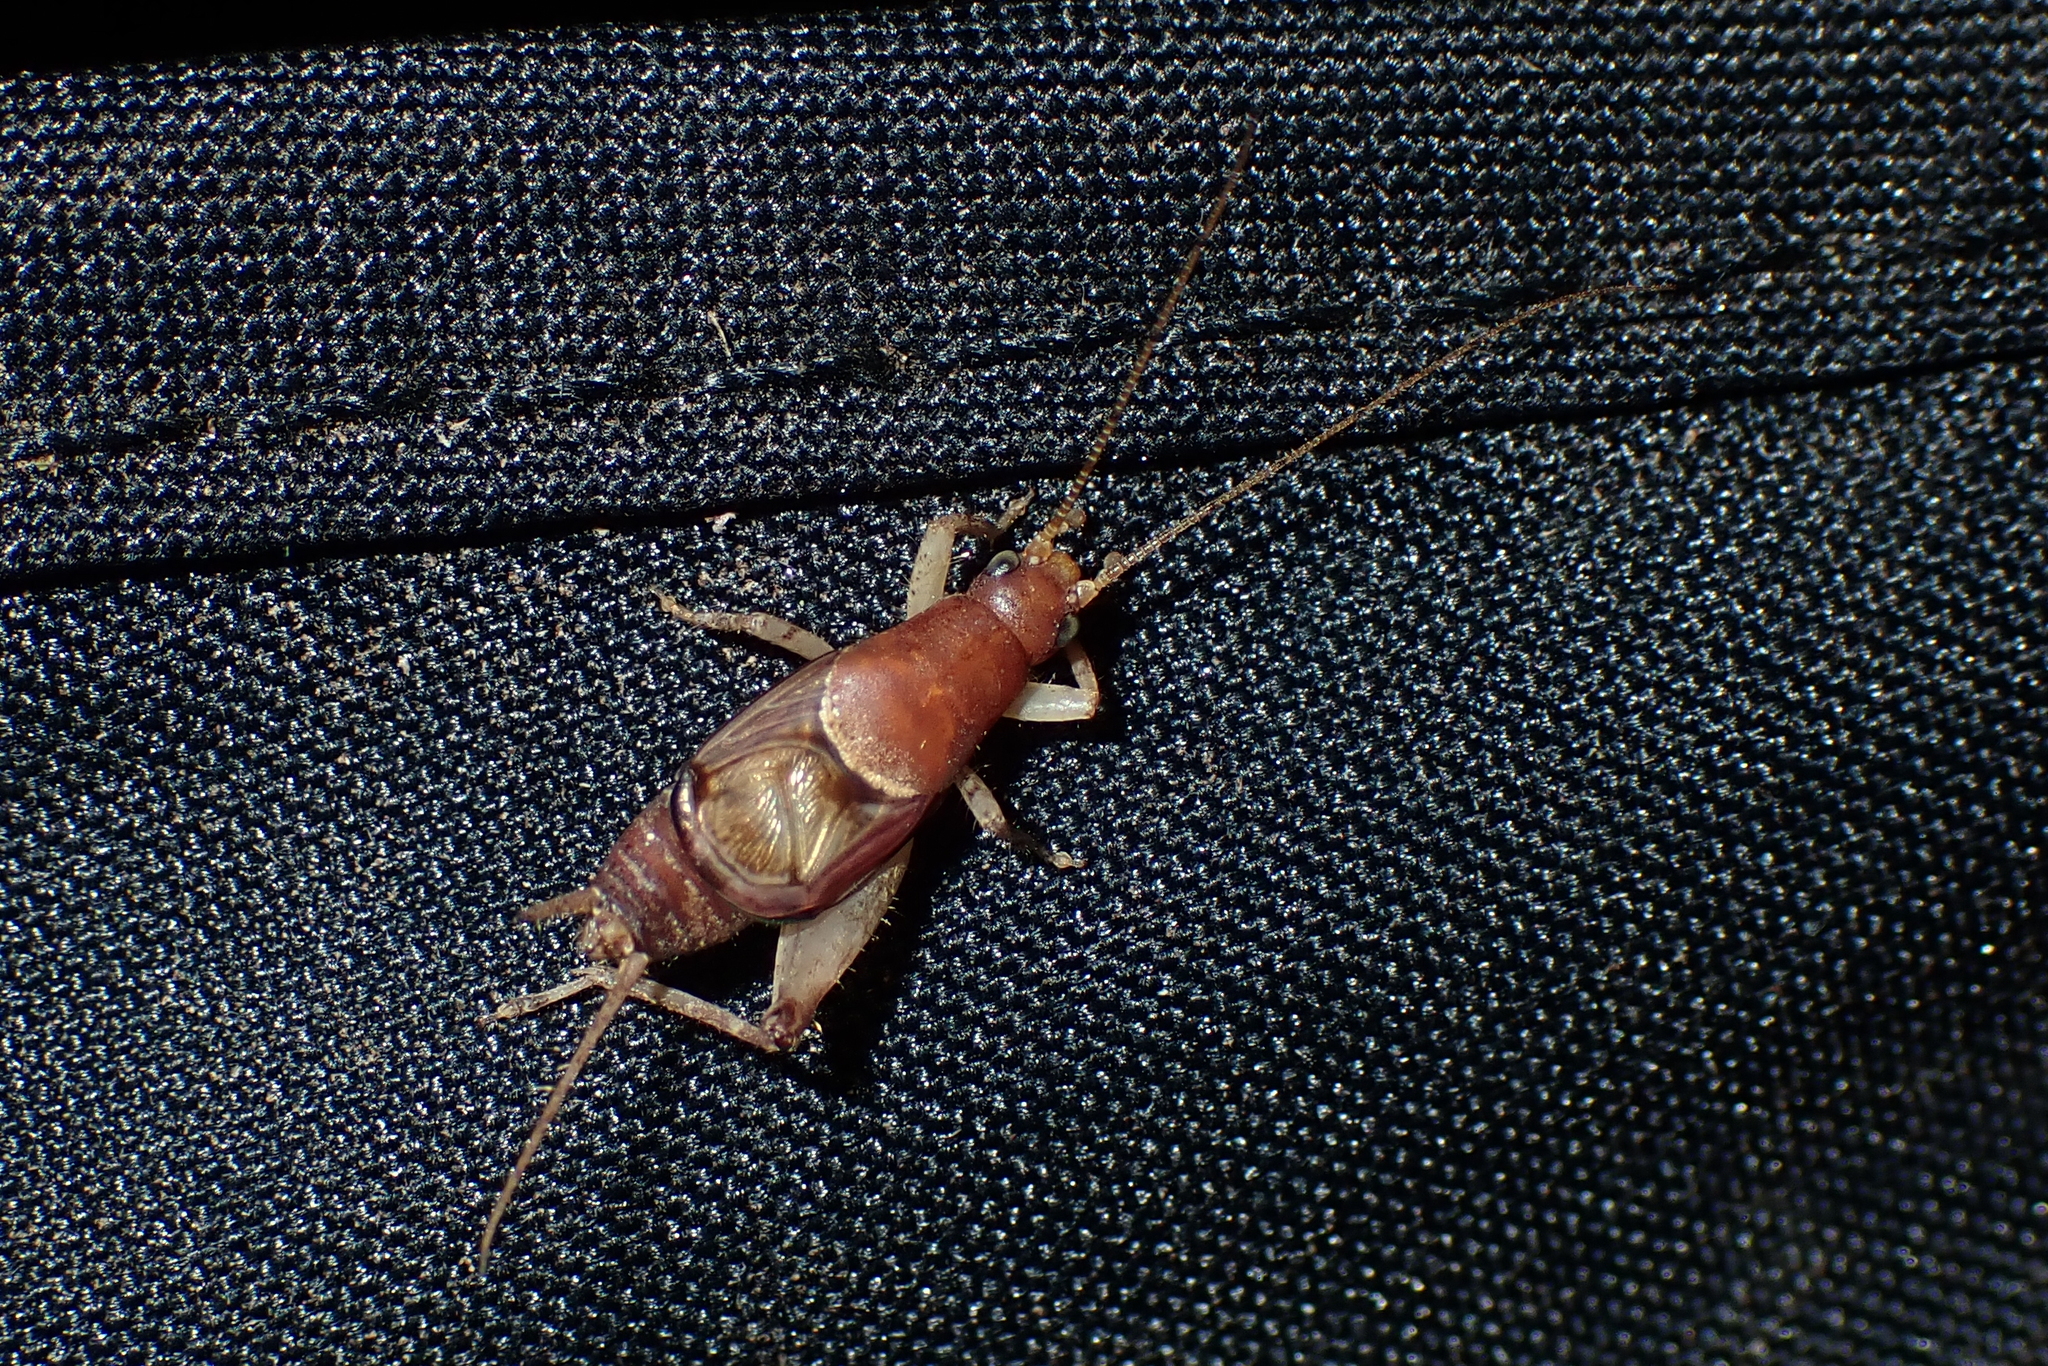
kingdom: Animalia
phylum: Arthropoda
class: Insecta
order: Orthoptera
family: Mogoplistidae
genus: Ornebius
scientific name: Ornebius aperta
